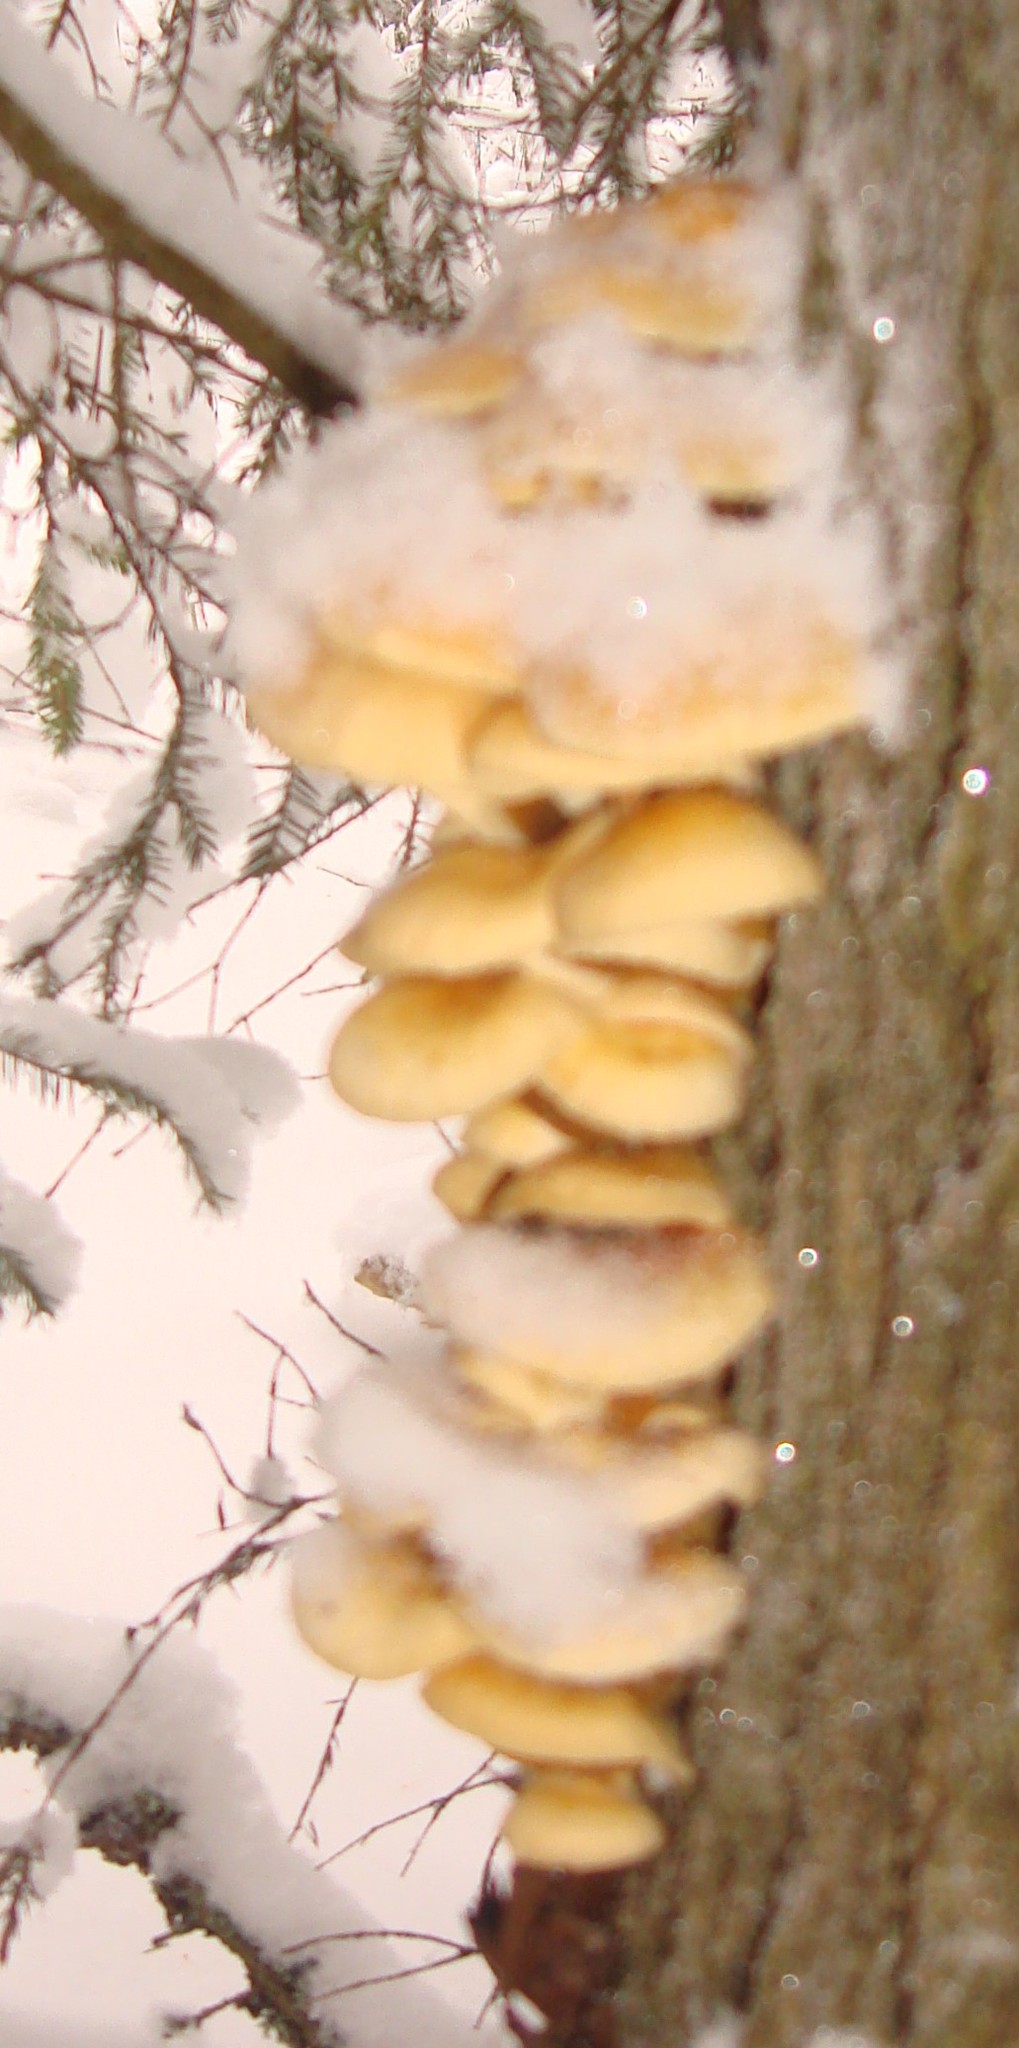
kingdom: Fungi
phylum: Basidiomycota
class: Agaricomycetes
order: Agaricales
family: Physalacriaceae
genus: Flammulina
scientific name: Flammulina
